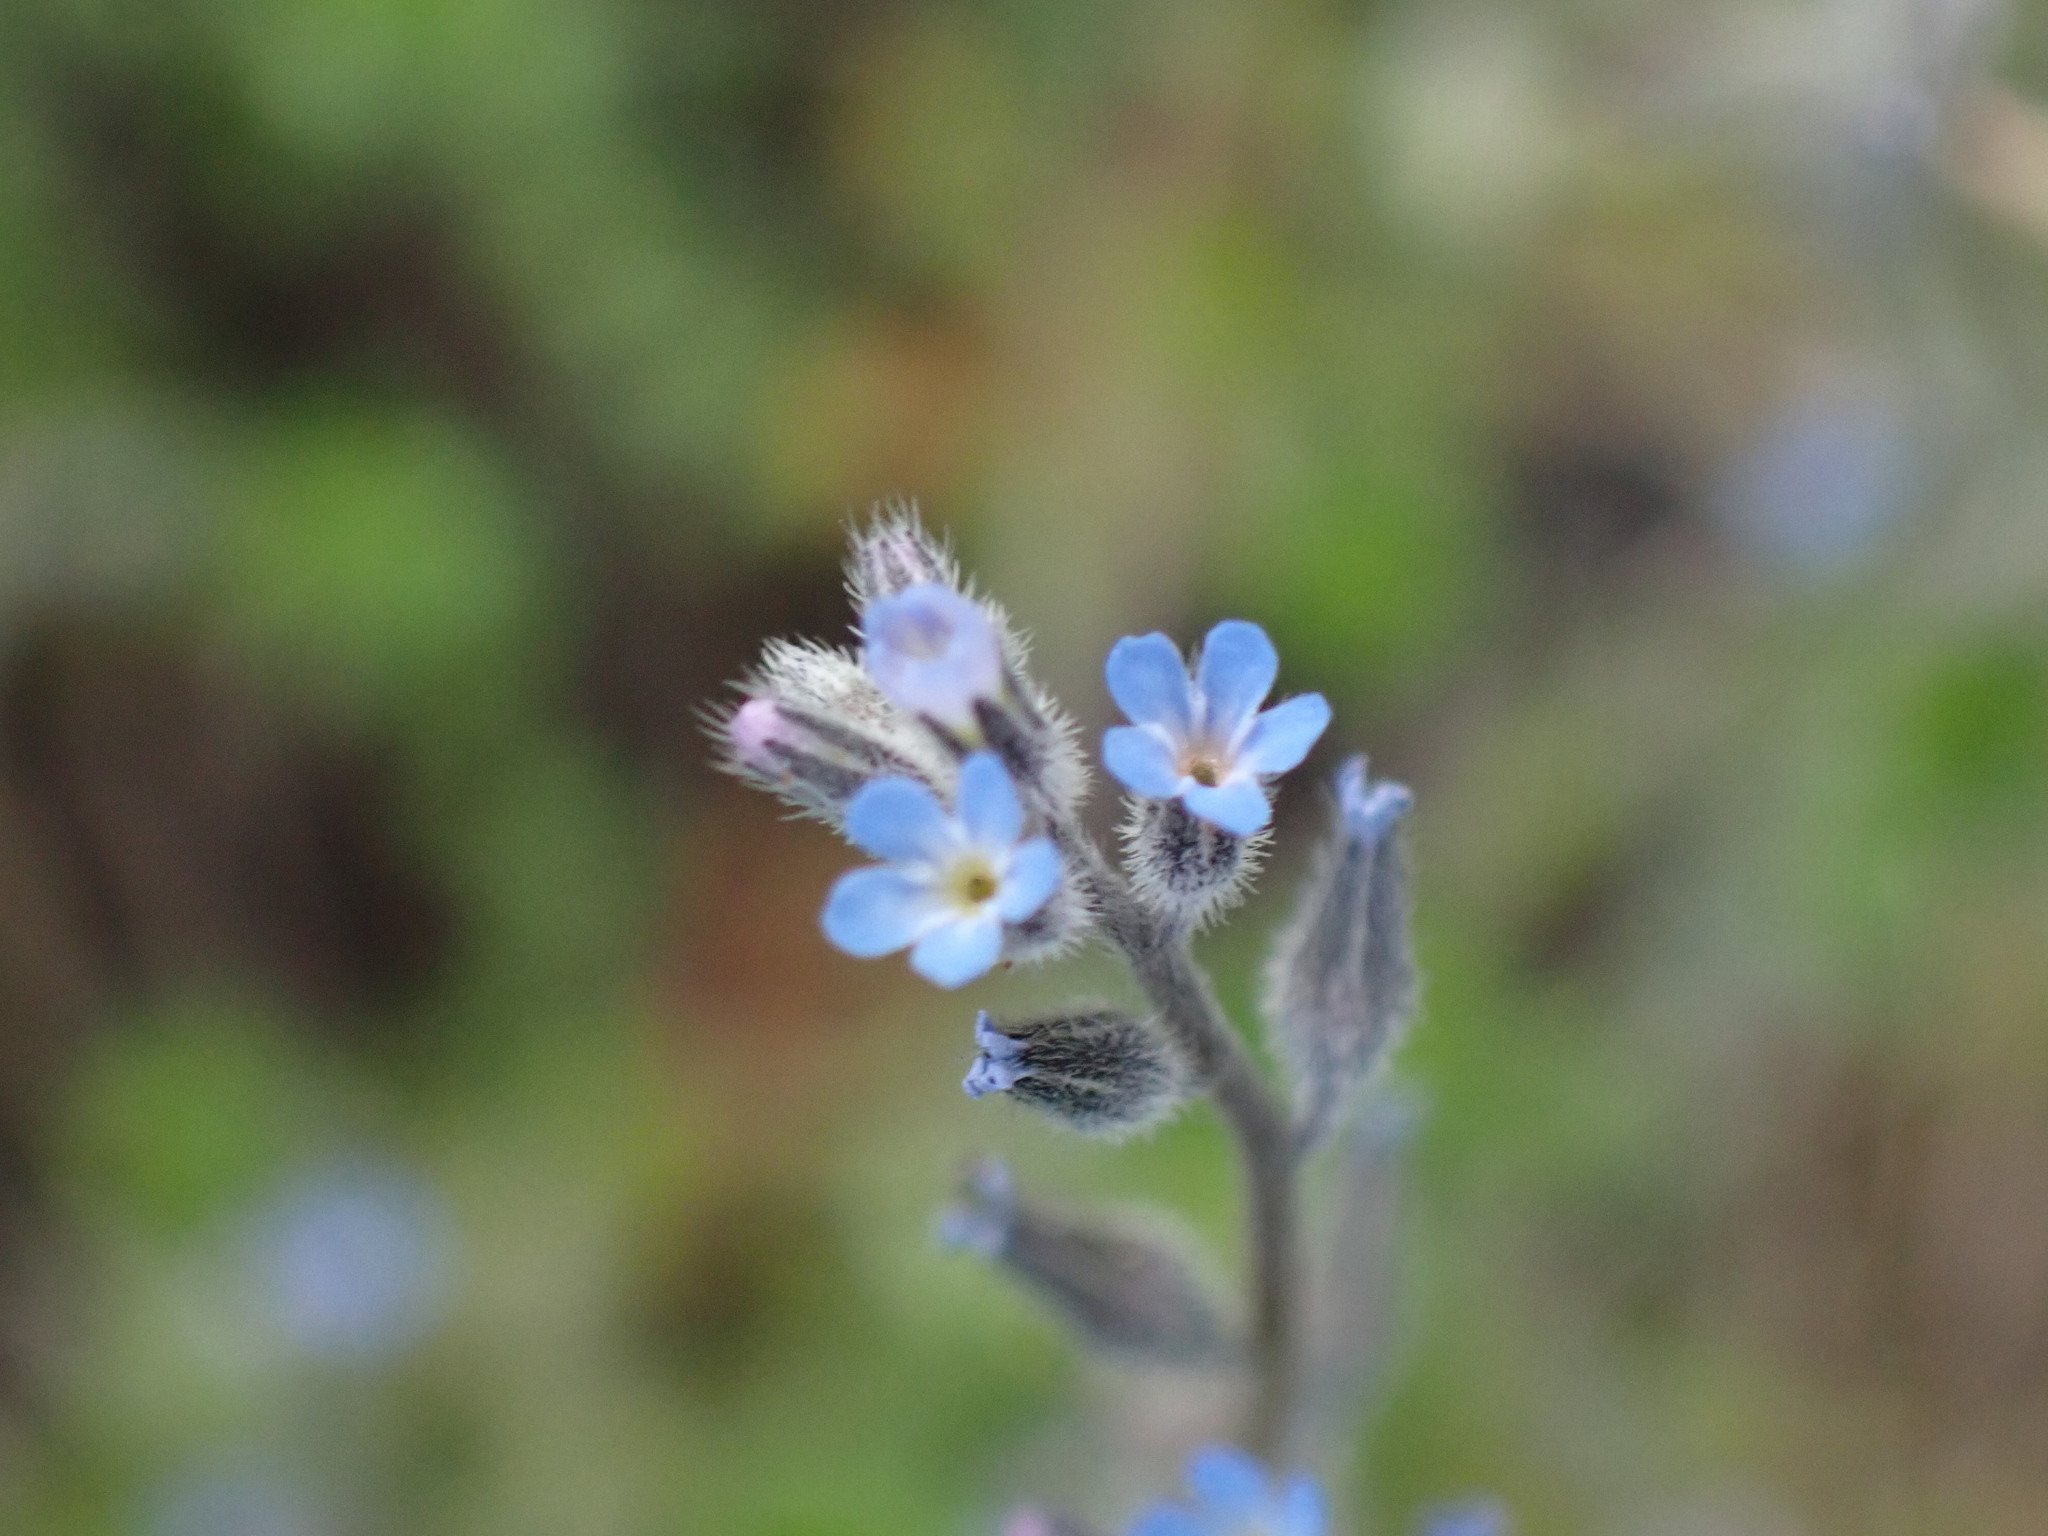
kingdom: Plantae
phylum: Tracheophyta
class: Magnoliopsida
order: Boraginales
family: Boraginaceae
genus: Myosotis
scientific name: Myosotis stricta
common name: Strict forget-me-not
